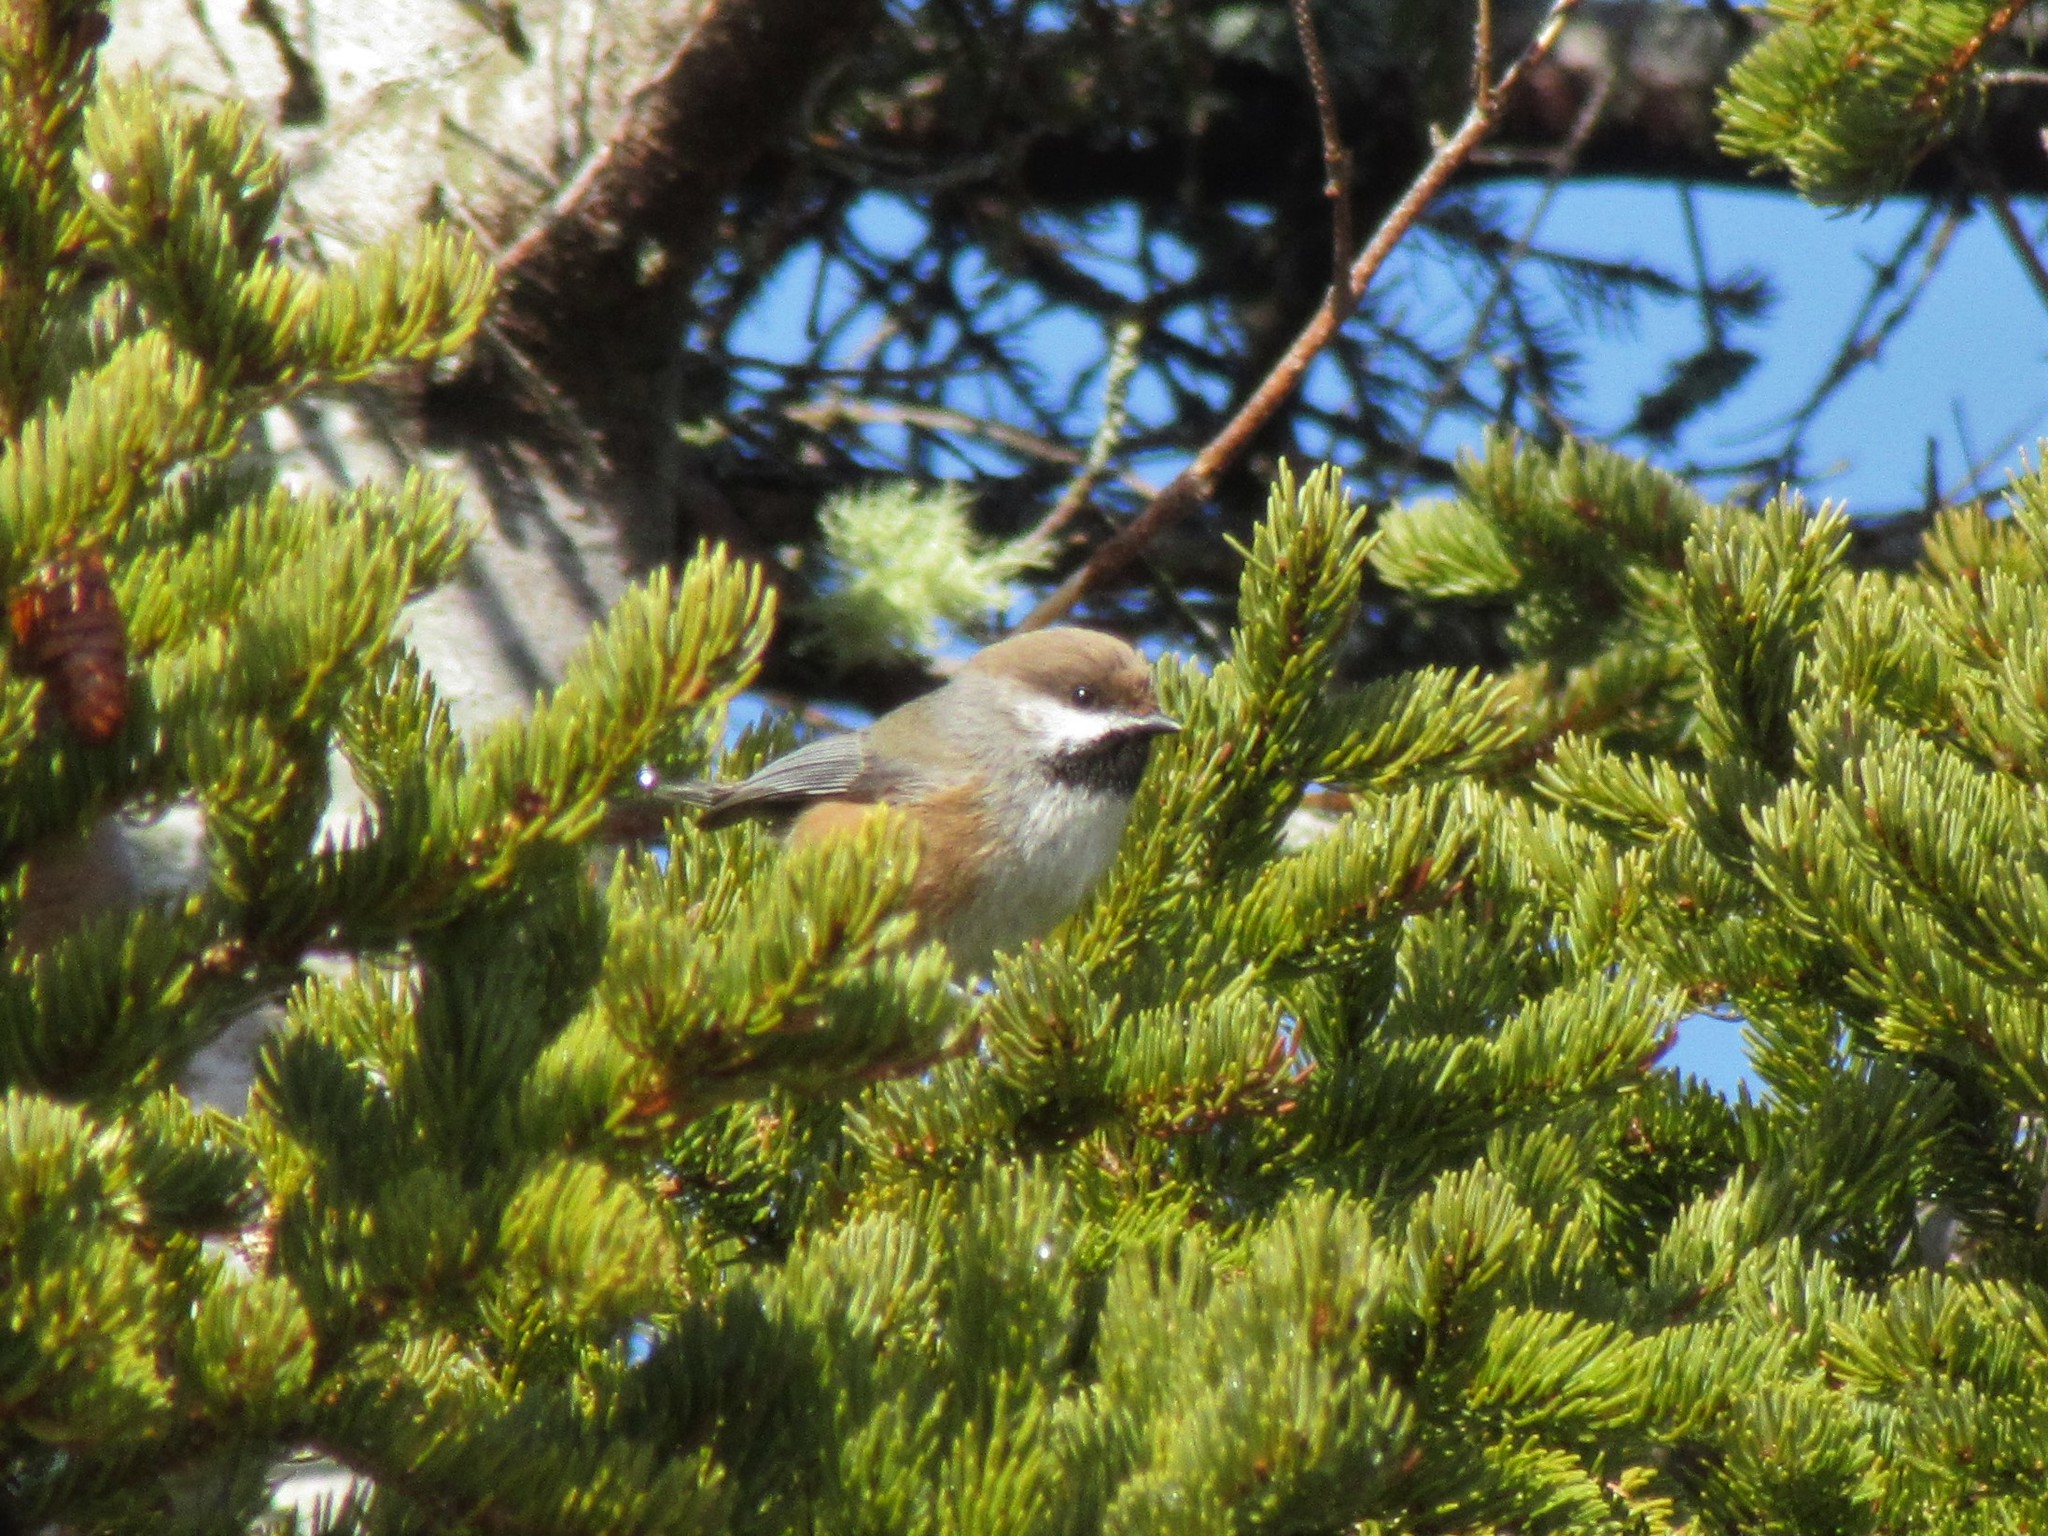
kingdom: Animalia
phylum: Chordata
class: Aves
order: Passeriformes
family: Paridae
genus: Poecile
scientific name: Poecile hudsonicus
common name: Boreal chickadee
